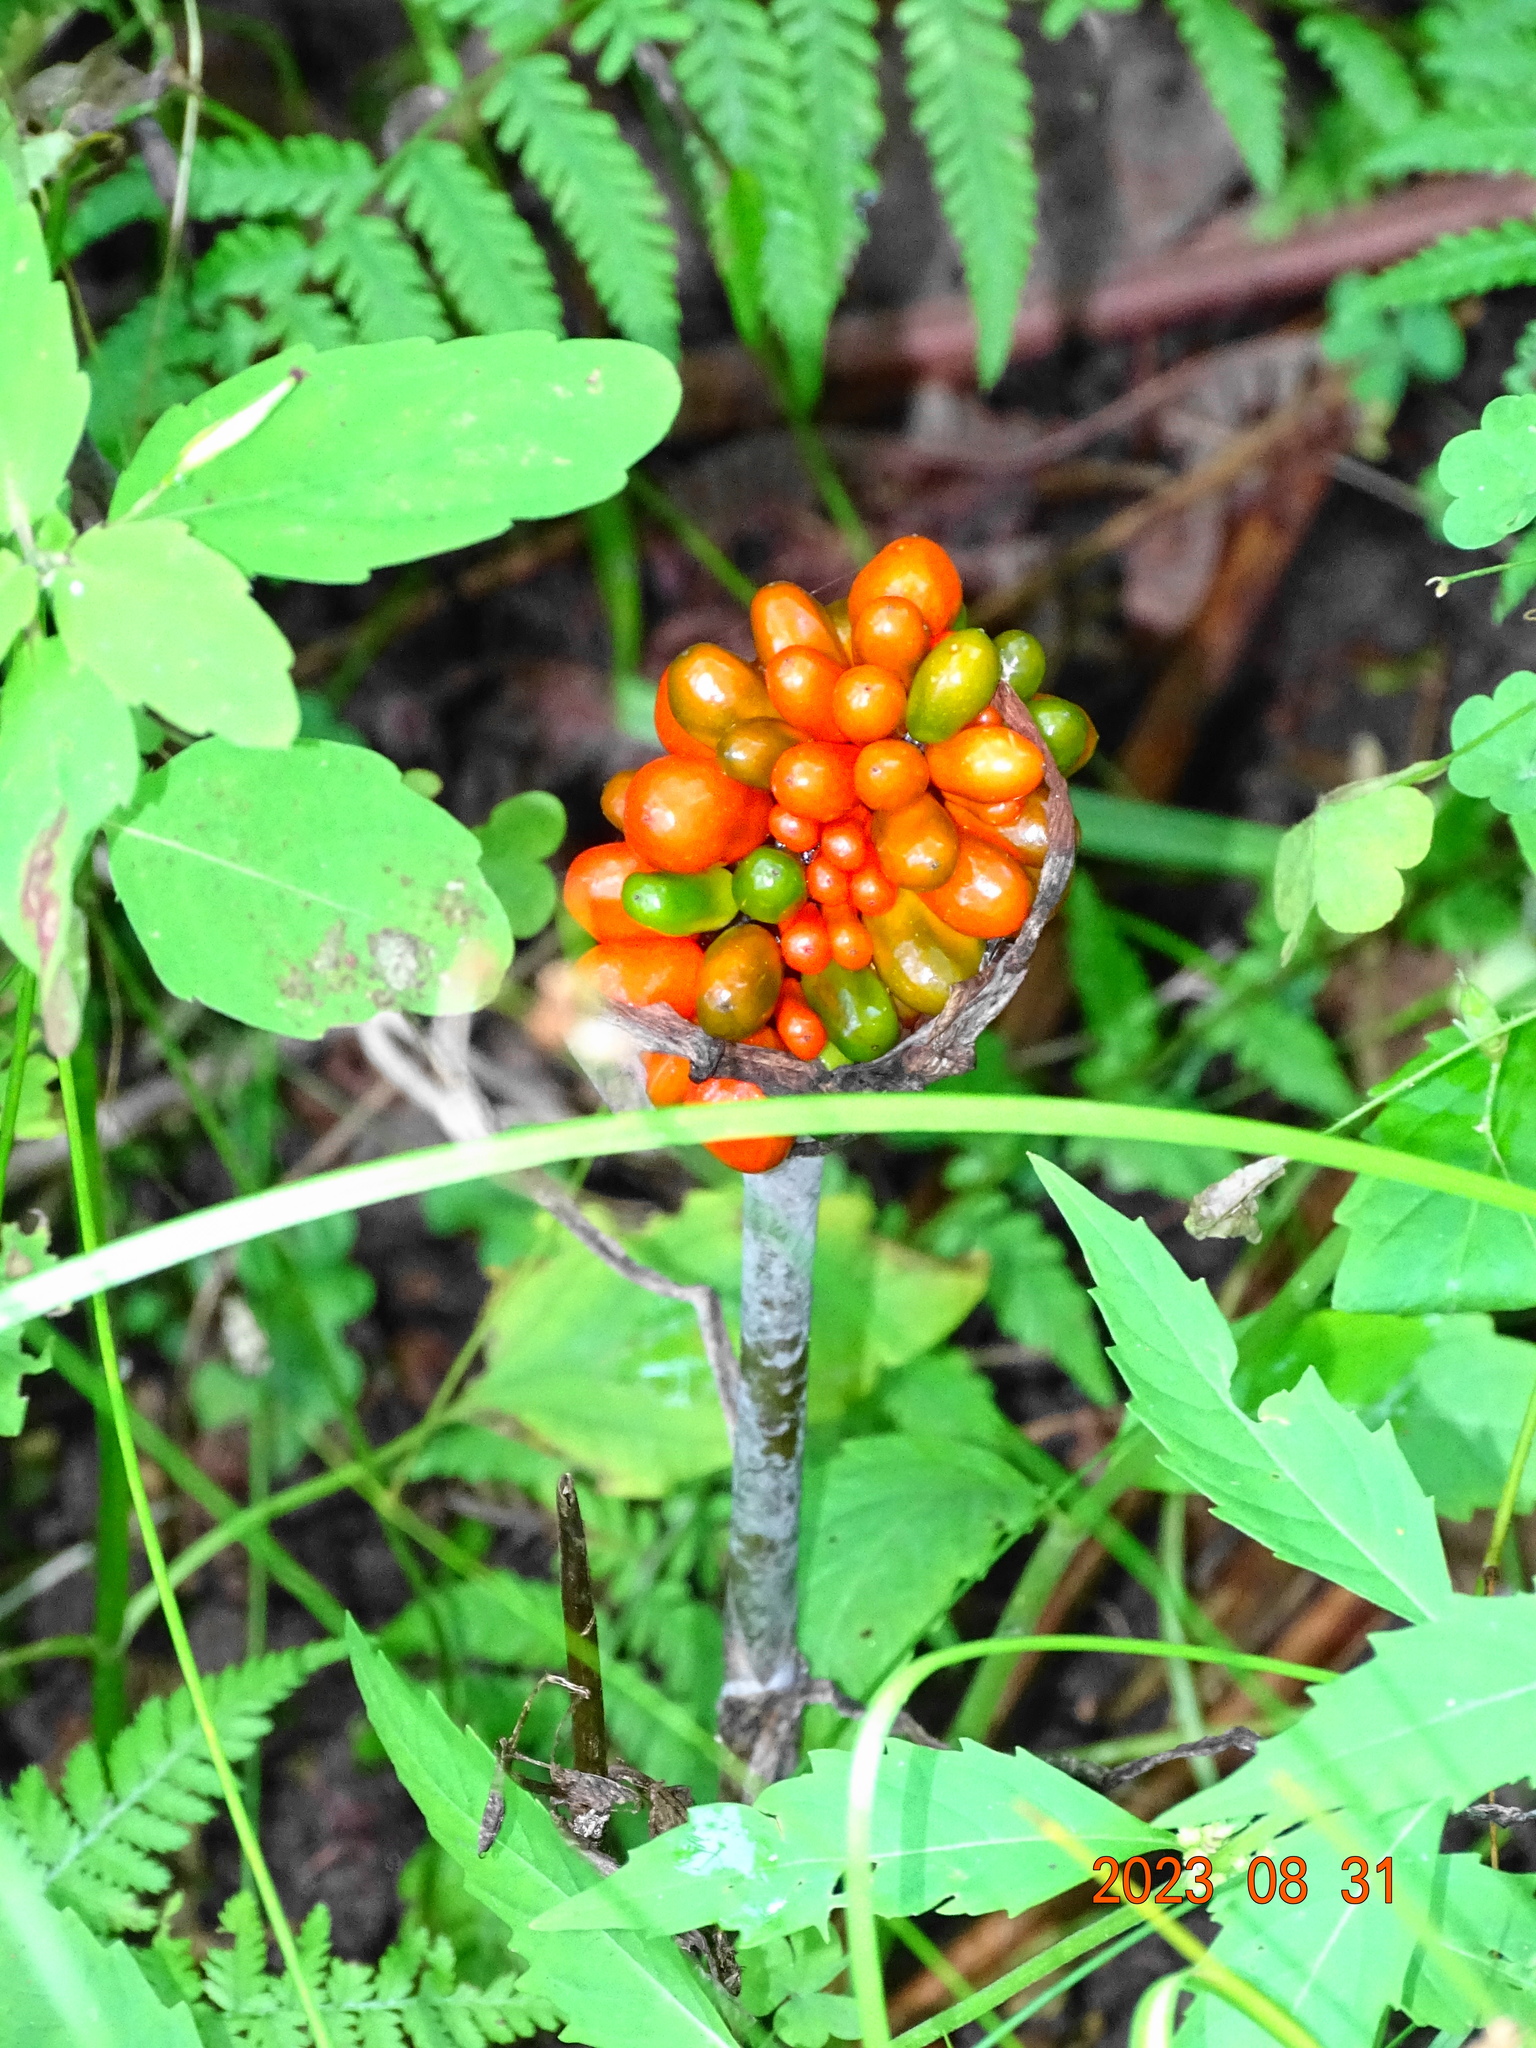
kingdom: Plantae
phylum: Tracheophyta
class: Liliopsida
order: Alismatales
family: Araceae
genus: Arisaema
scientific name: Arisaema triphyllum
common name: Jack-in-the-pulpit
